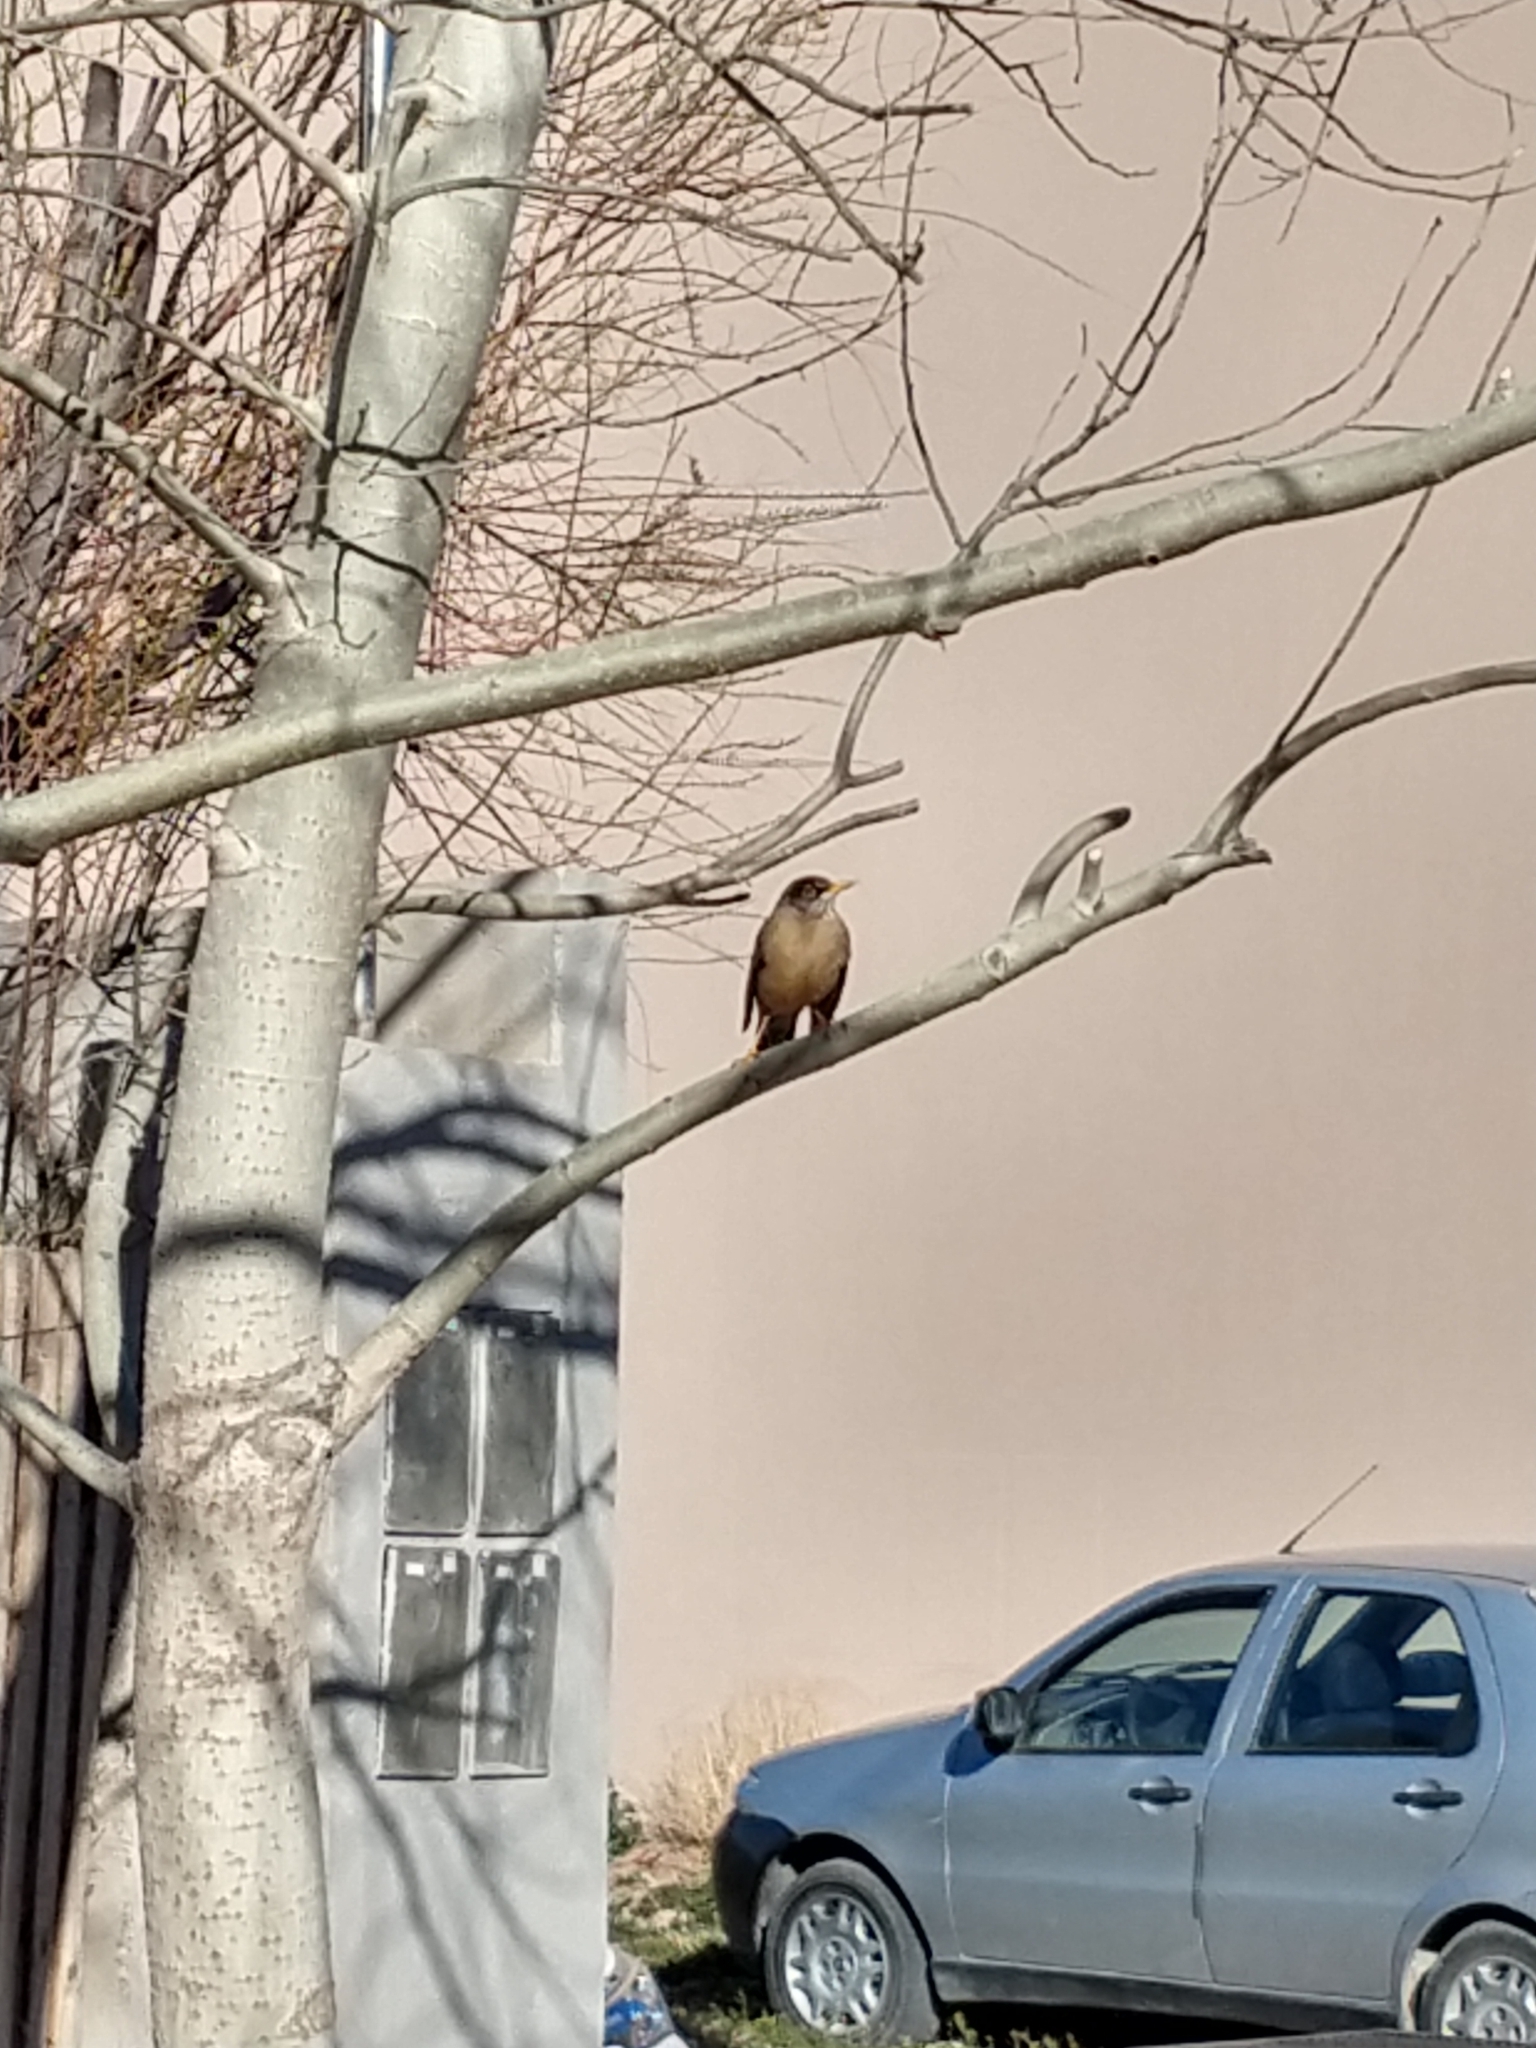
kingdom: Animalia
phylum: Chordata
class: Aves
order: Passeriformes
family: Turdidae
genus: Turdus
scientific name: Turdus chiguanco
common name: Chiguanco thrush
